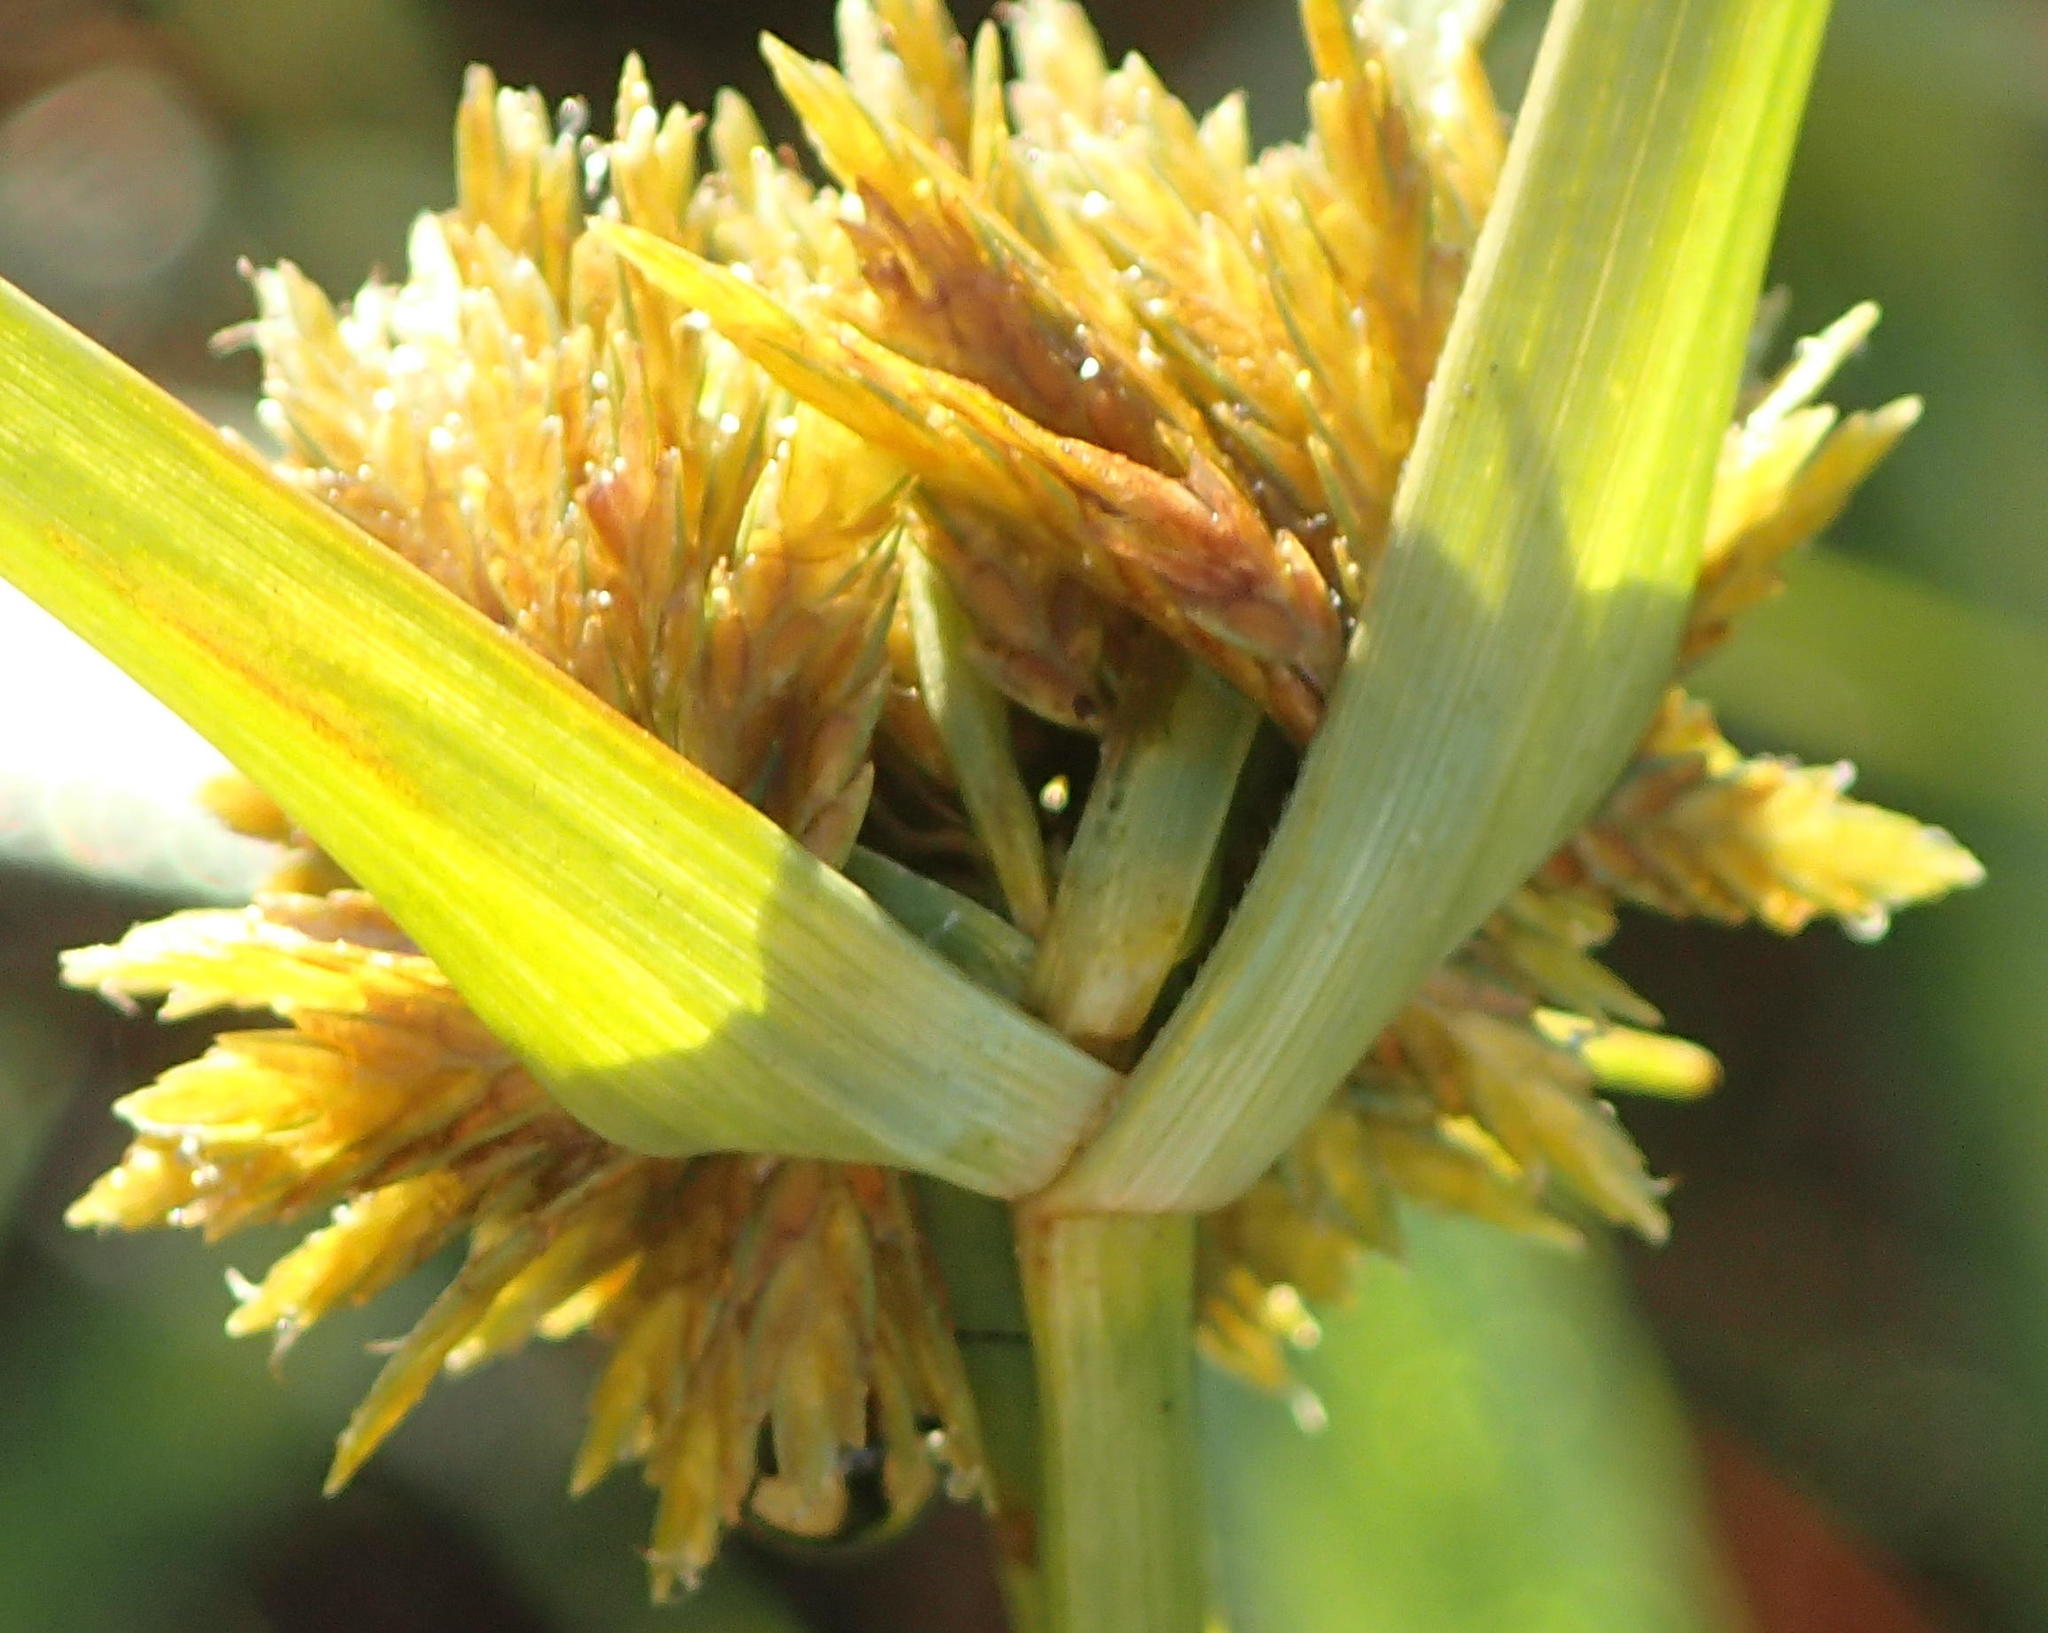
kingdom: Plantae
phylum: Tracheophyta
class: Liliopsida
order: Poales
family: Cyperaceae
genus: Cyperus
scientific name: Cyperus polystachyos
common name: Bunchy flat sedge
